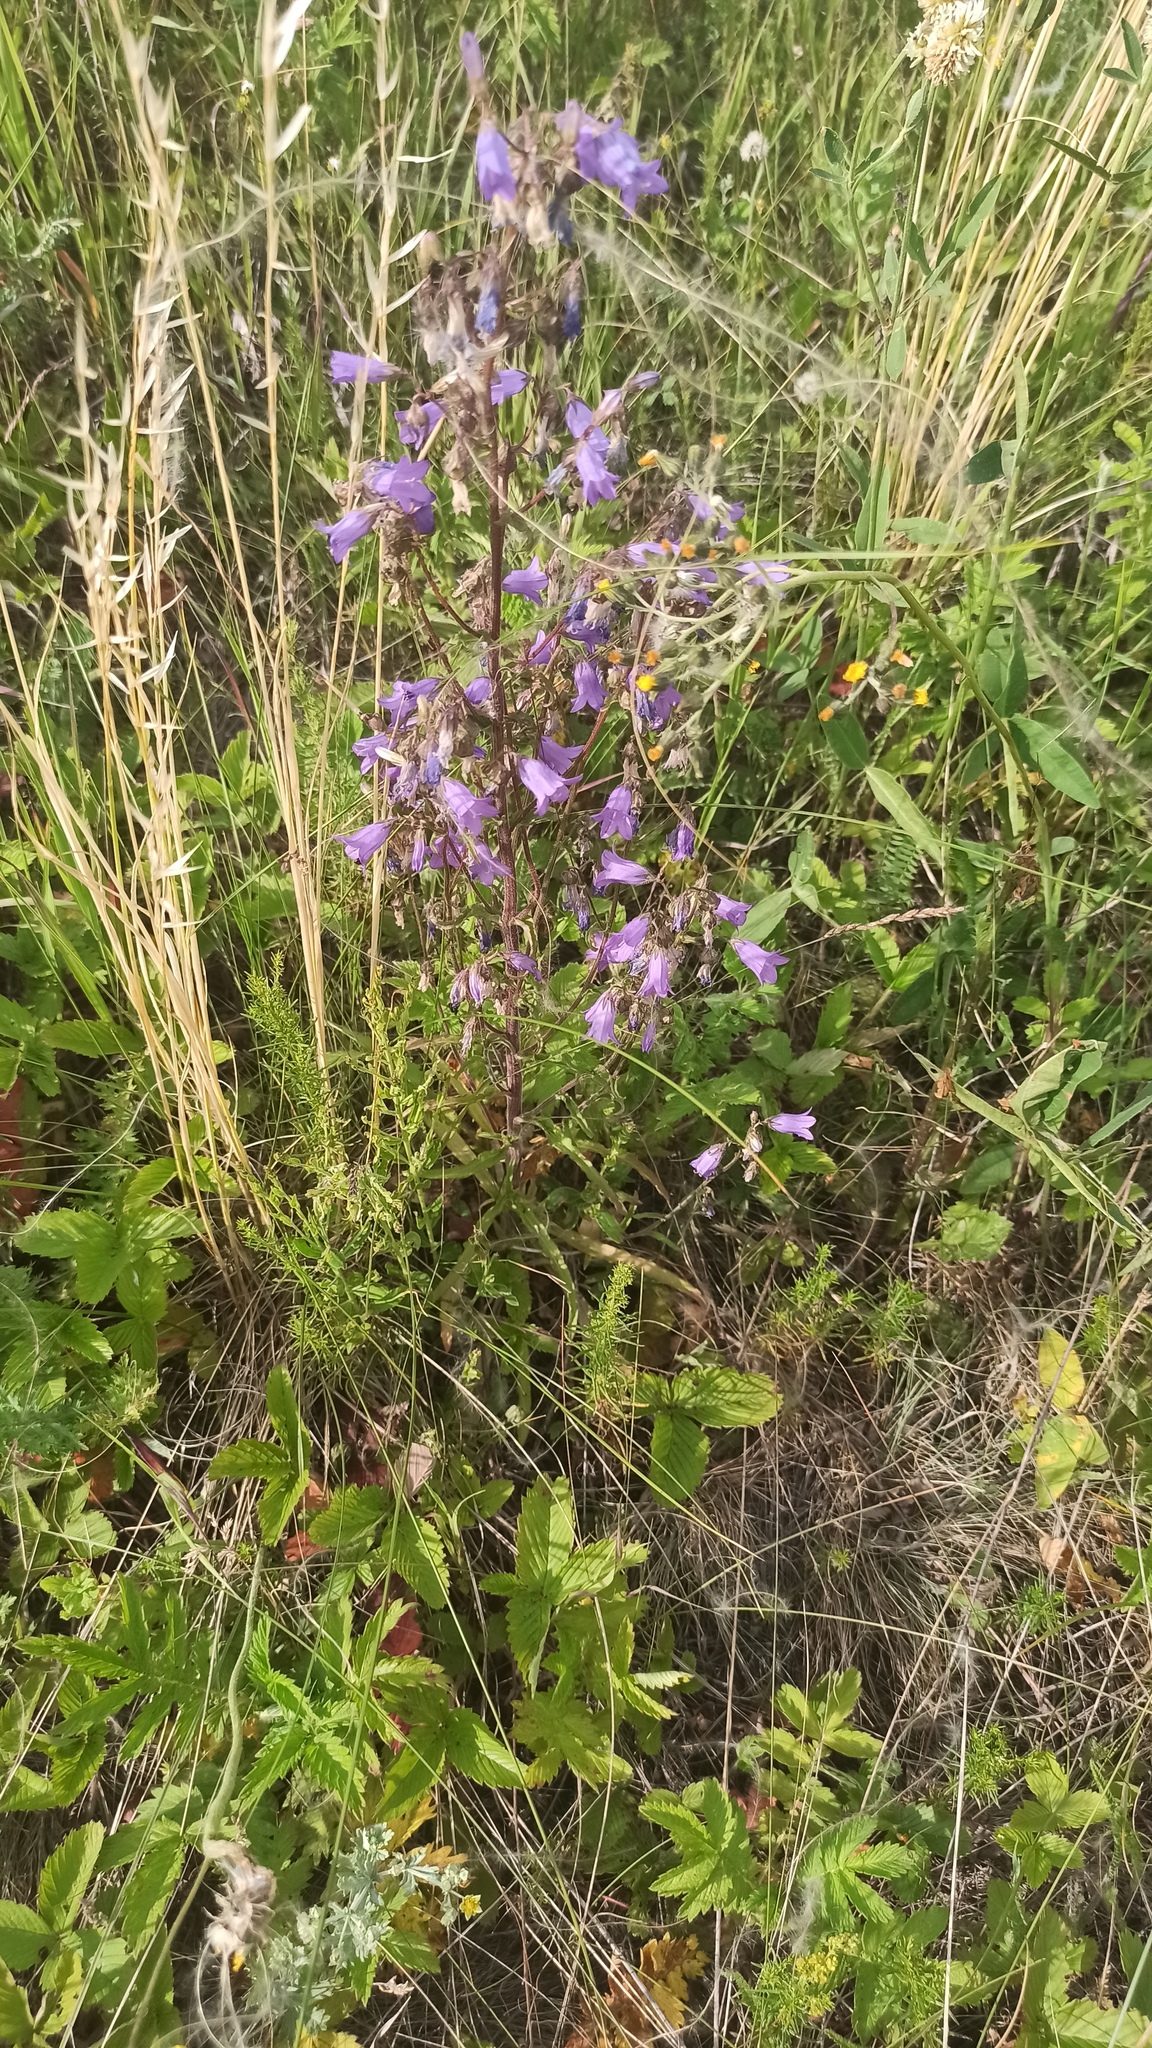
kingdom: Plantae
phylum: Tracheophyta
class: Magnoliopsida
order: Asterales
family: Campanulaceae
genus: Campanula
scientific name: Campanula sibirica
